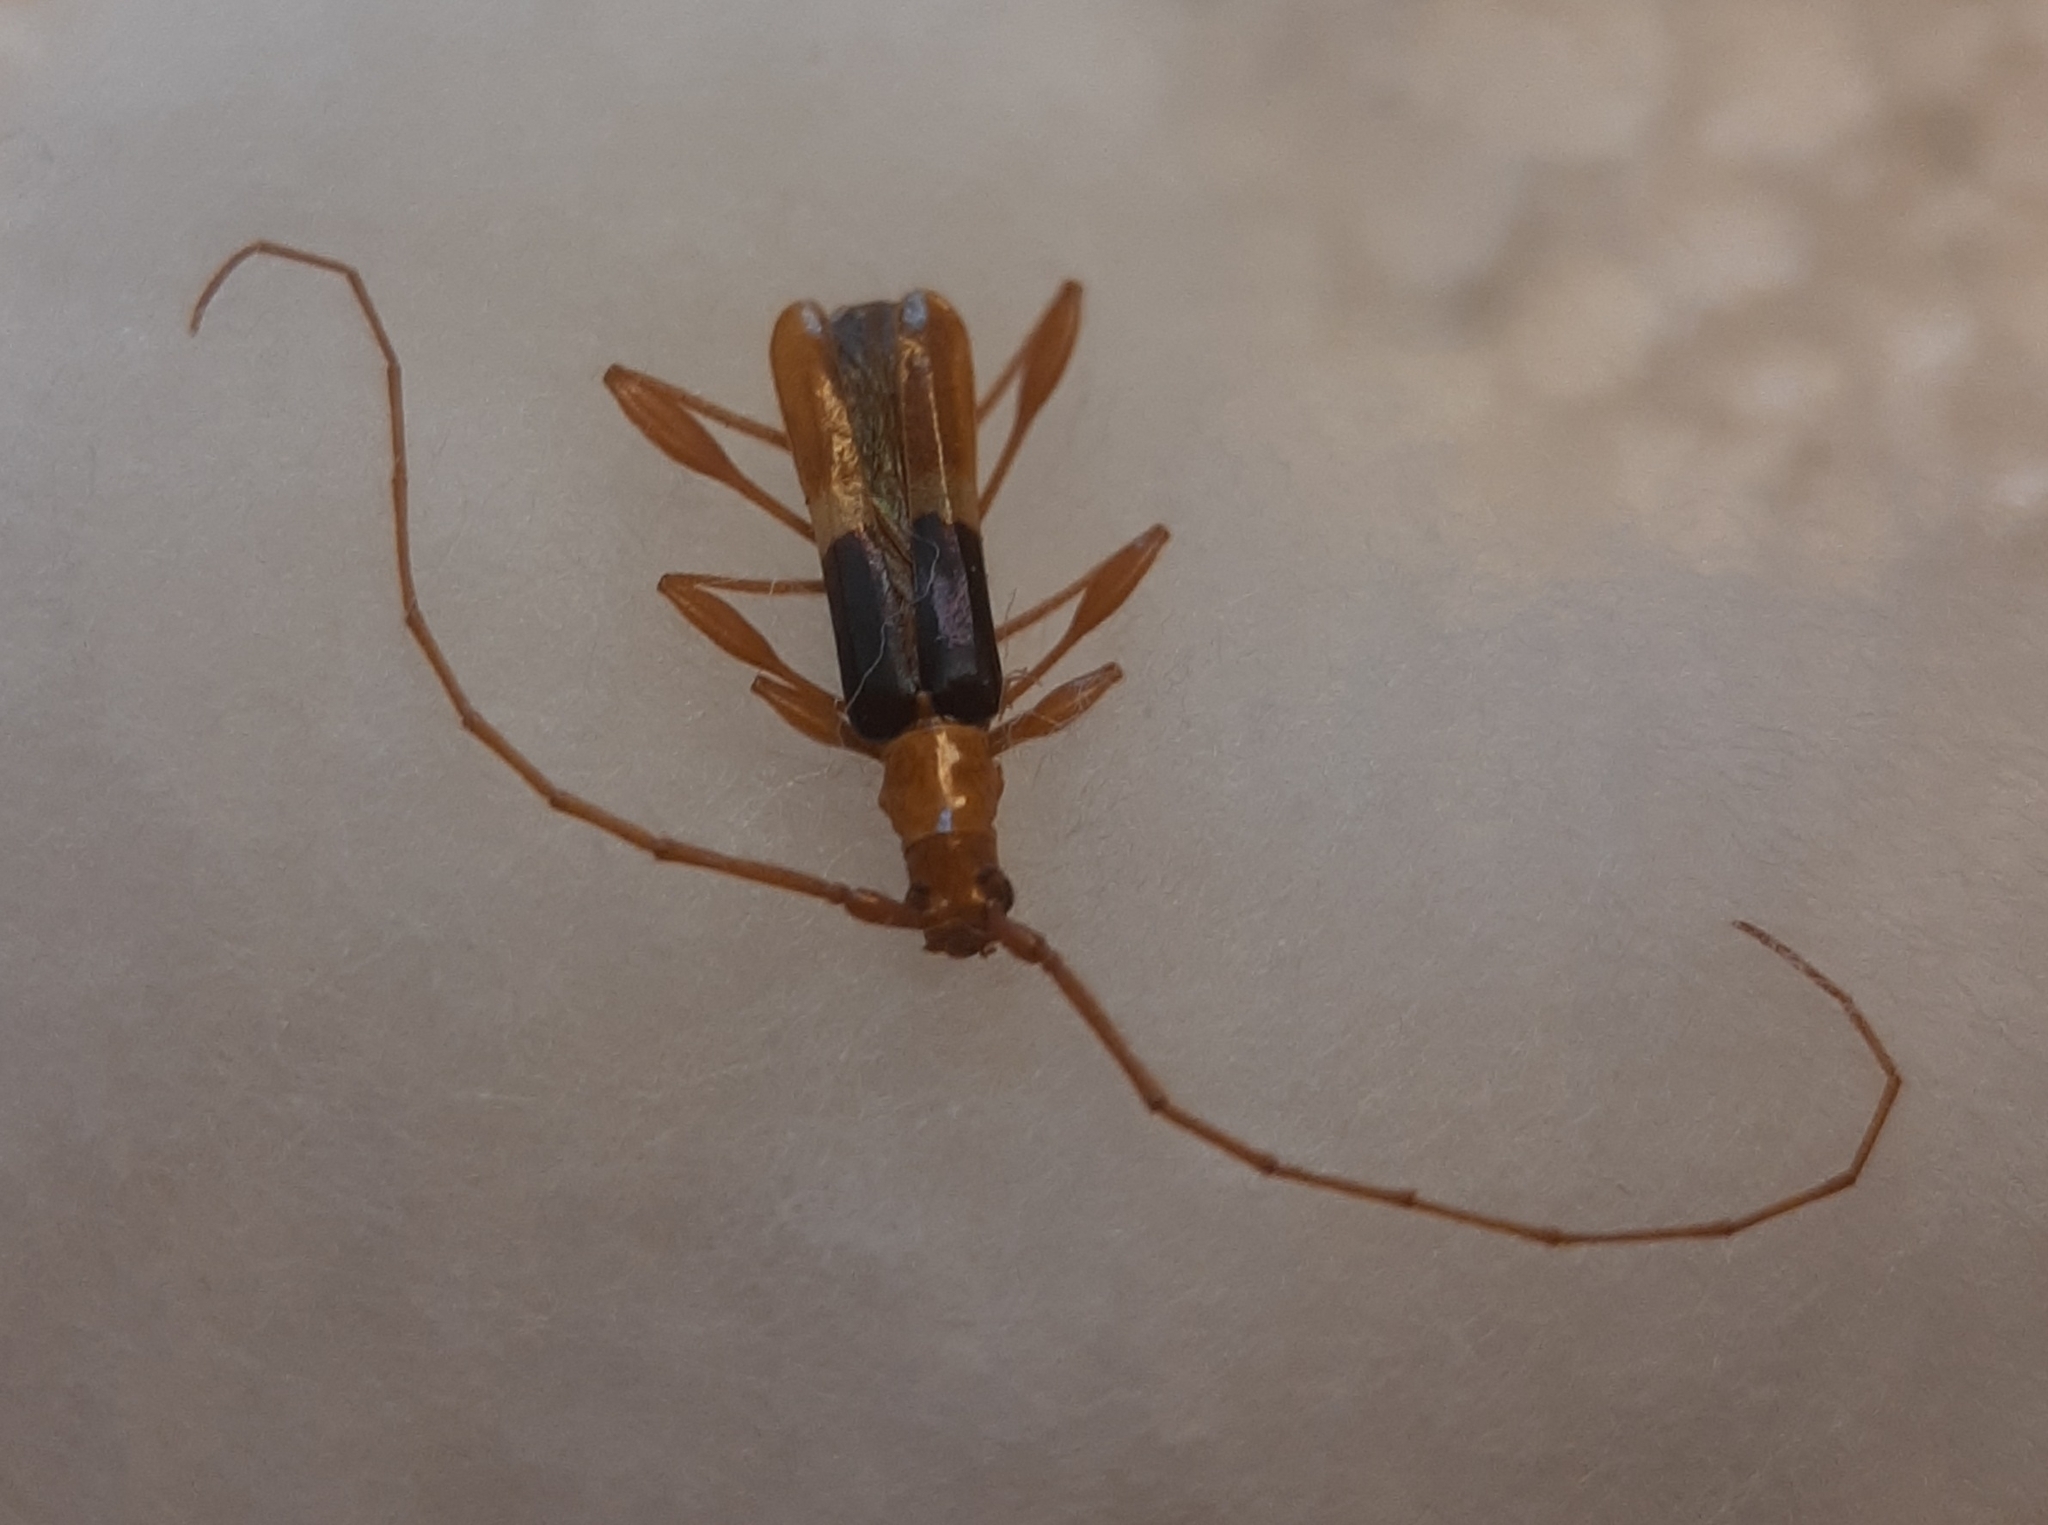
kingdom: Animalia
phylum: Arthropoda
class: Insecta
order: Coleoptera
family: Cerambycidae
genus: Chenoderus
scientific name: Chenoderus bicolor
